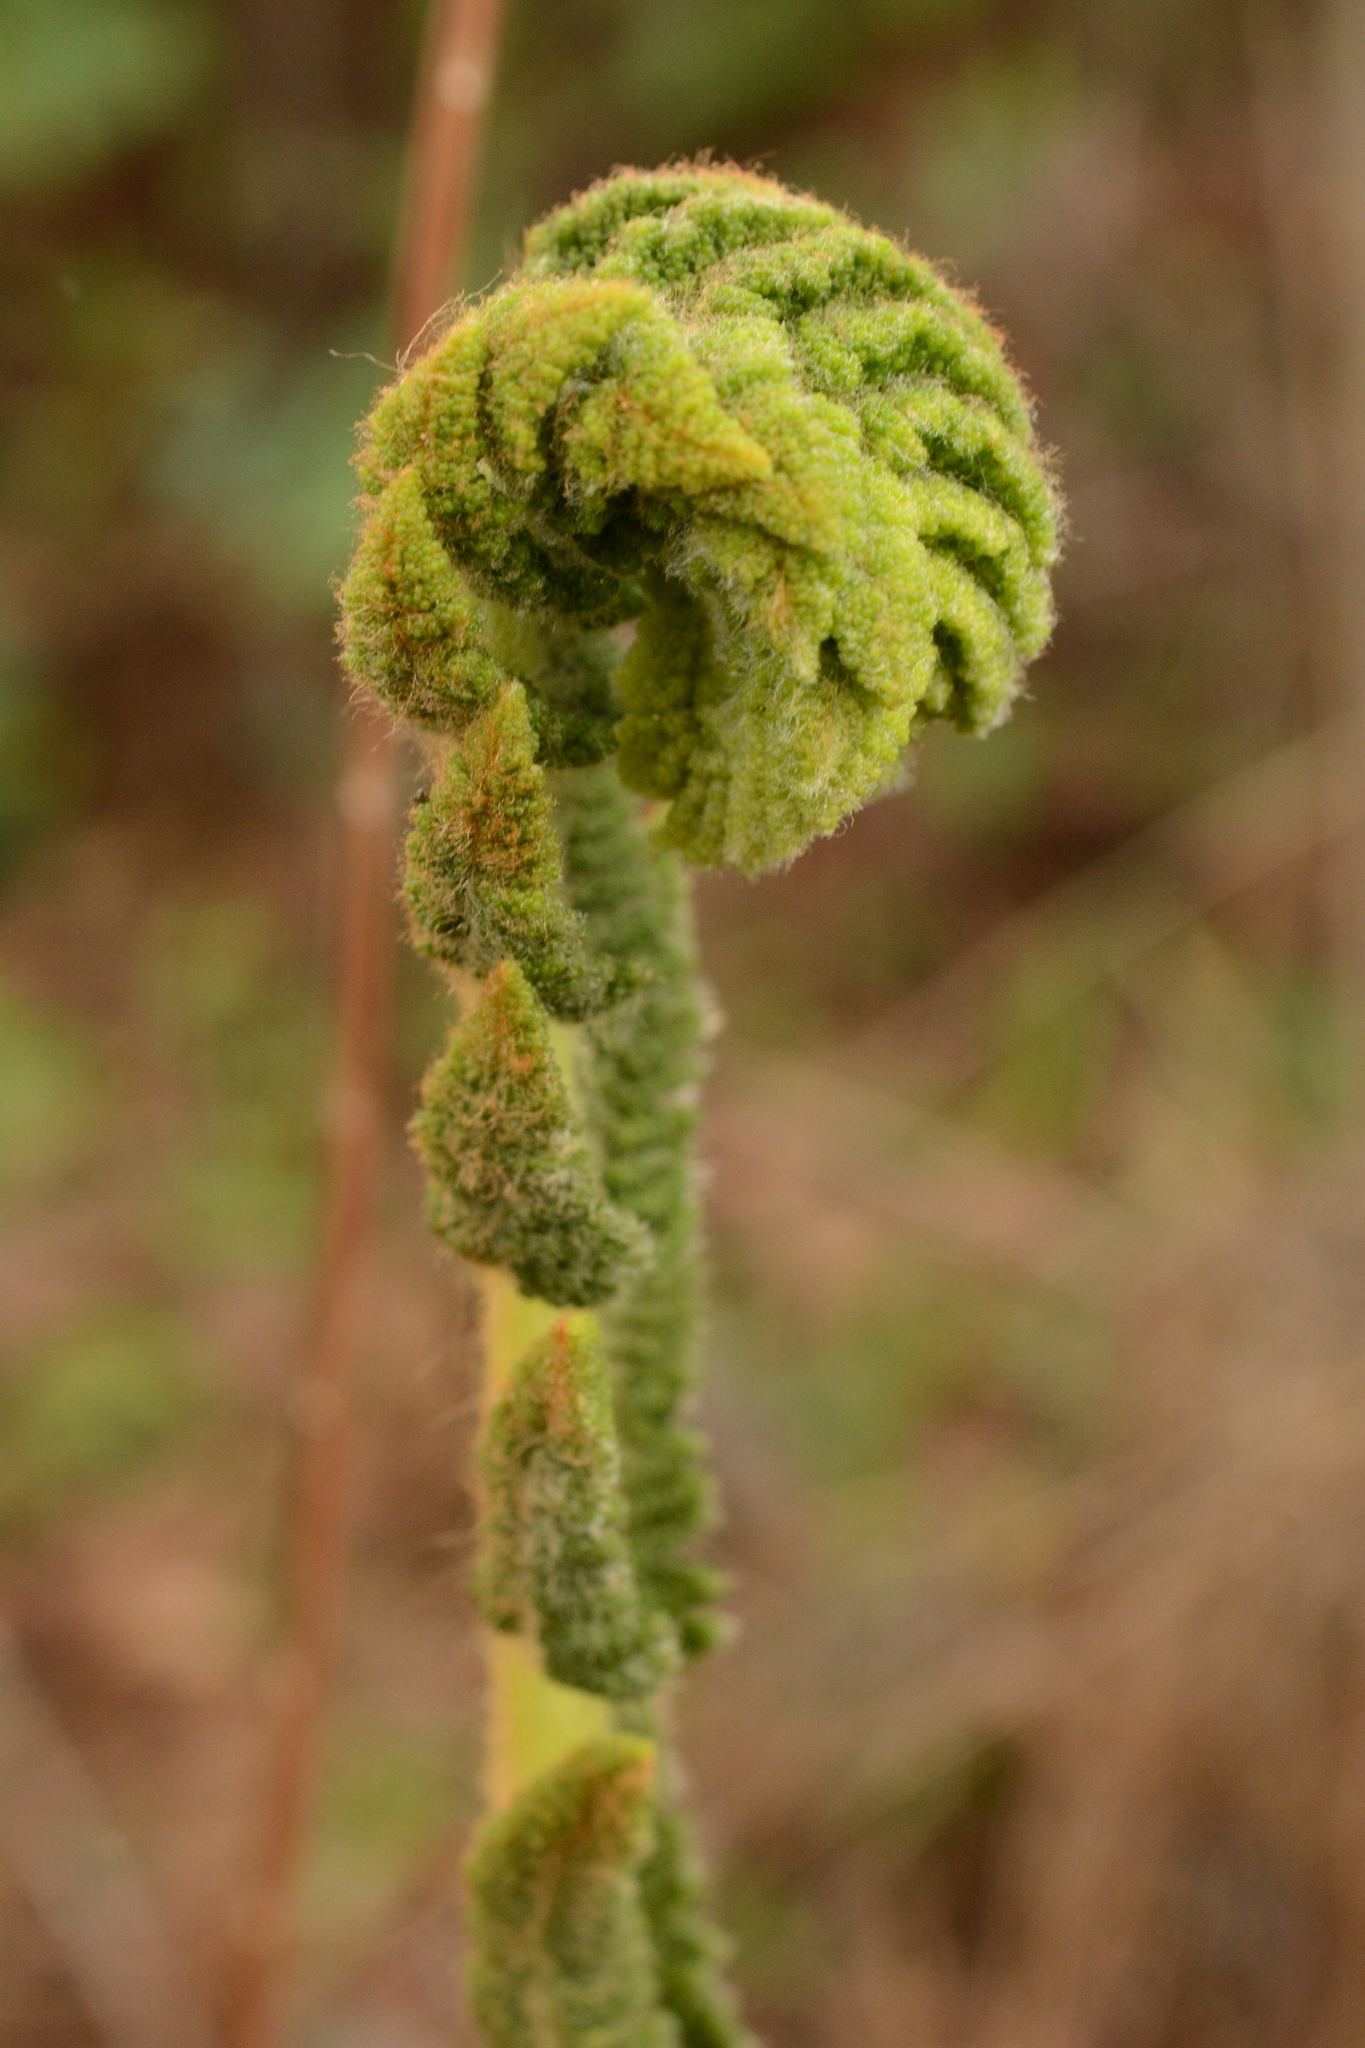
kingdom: Plantae
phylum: Tracheophyta
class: Polypodiopsida
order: Osmundales
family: Osmundaceae
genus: Osmundastrum
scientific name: Osmundastrum cinnamomeum
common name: Cinnamon fern
